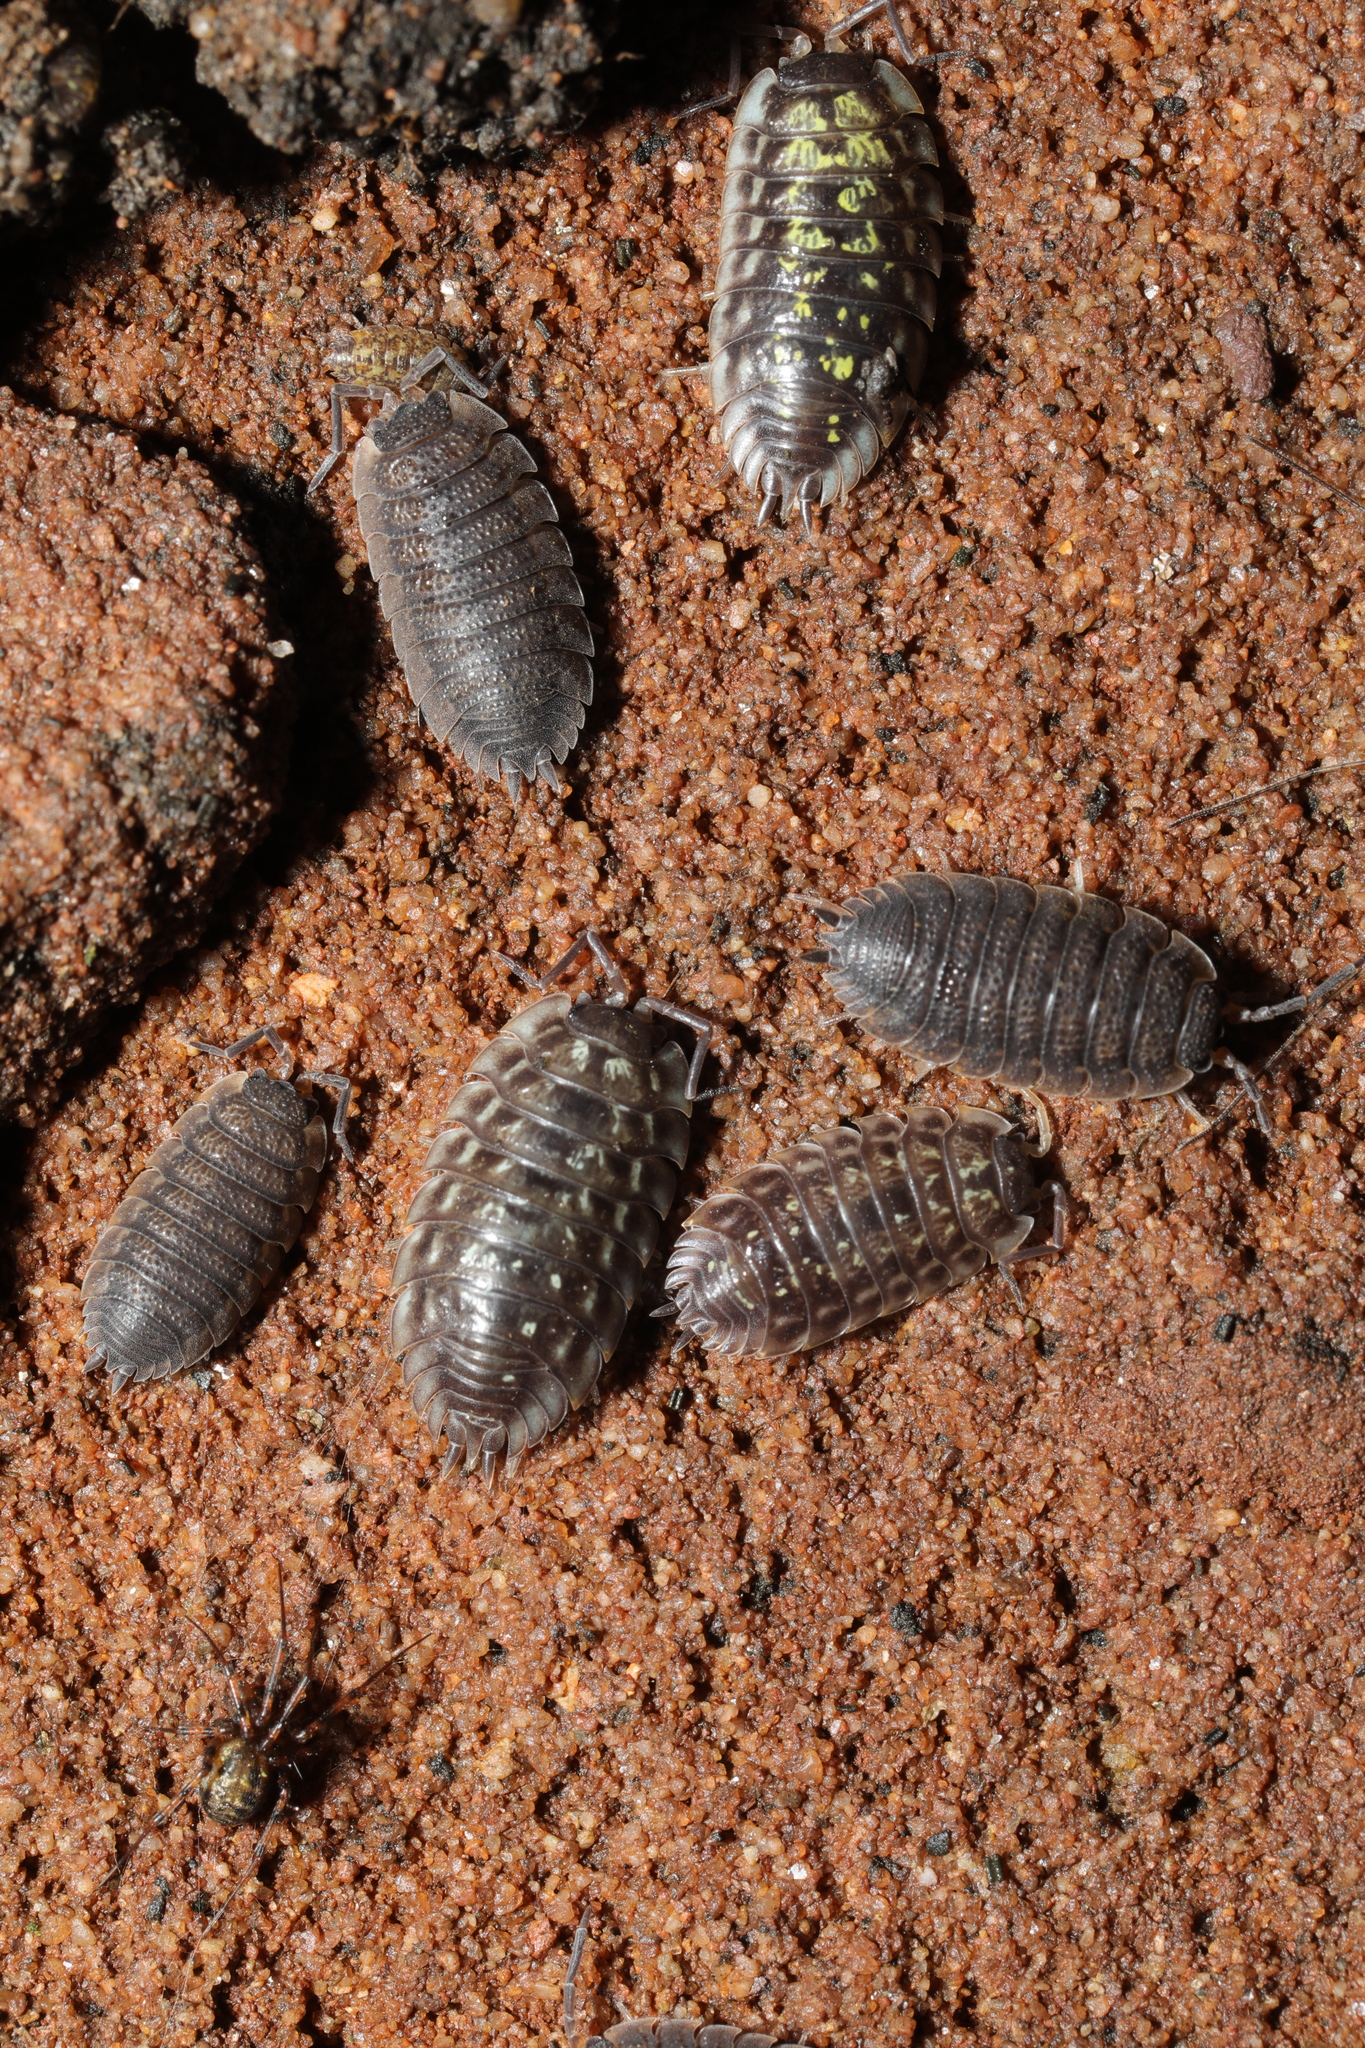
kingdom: Animalia
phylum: Arthropoda
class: Malacostraca
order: Isopoda
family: Oniscidae
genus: Oniscus
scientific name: Oniscus asellus
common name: Common shiny woodlouse
